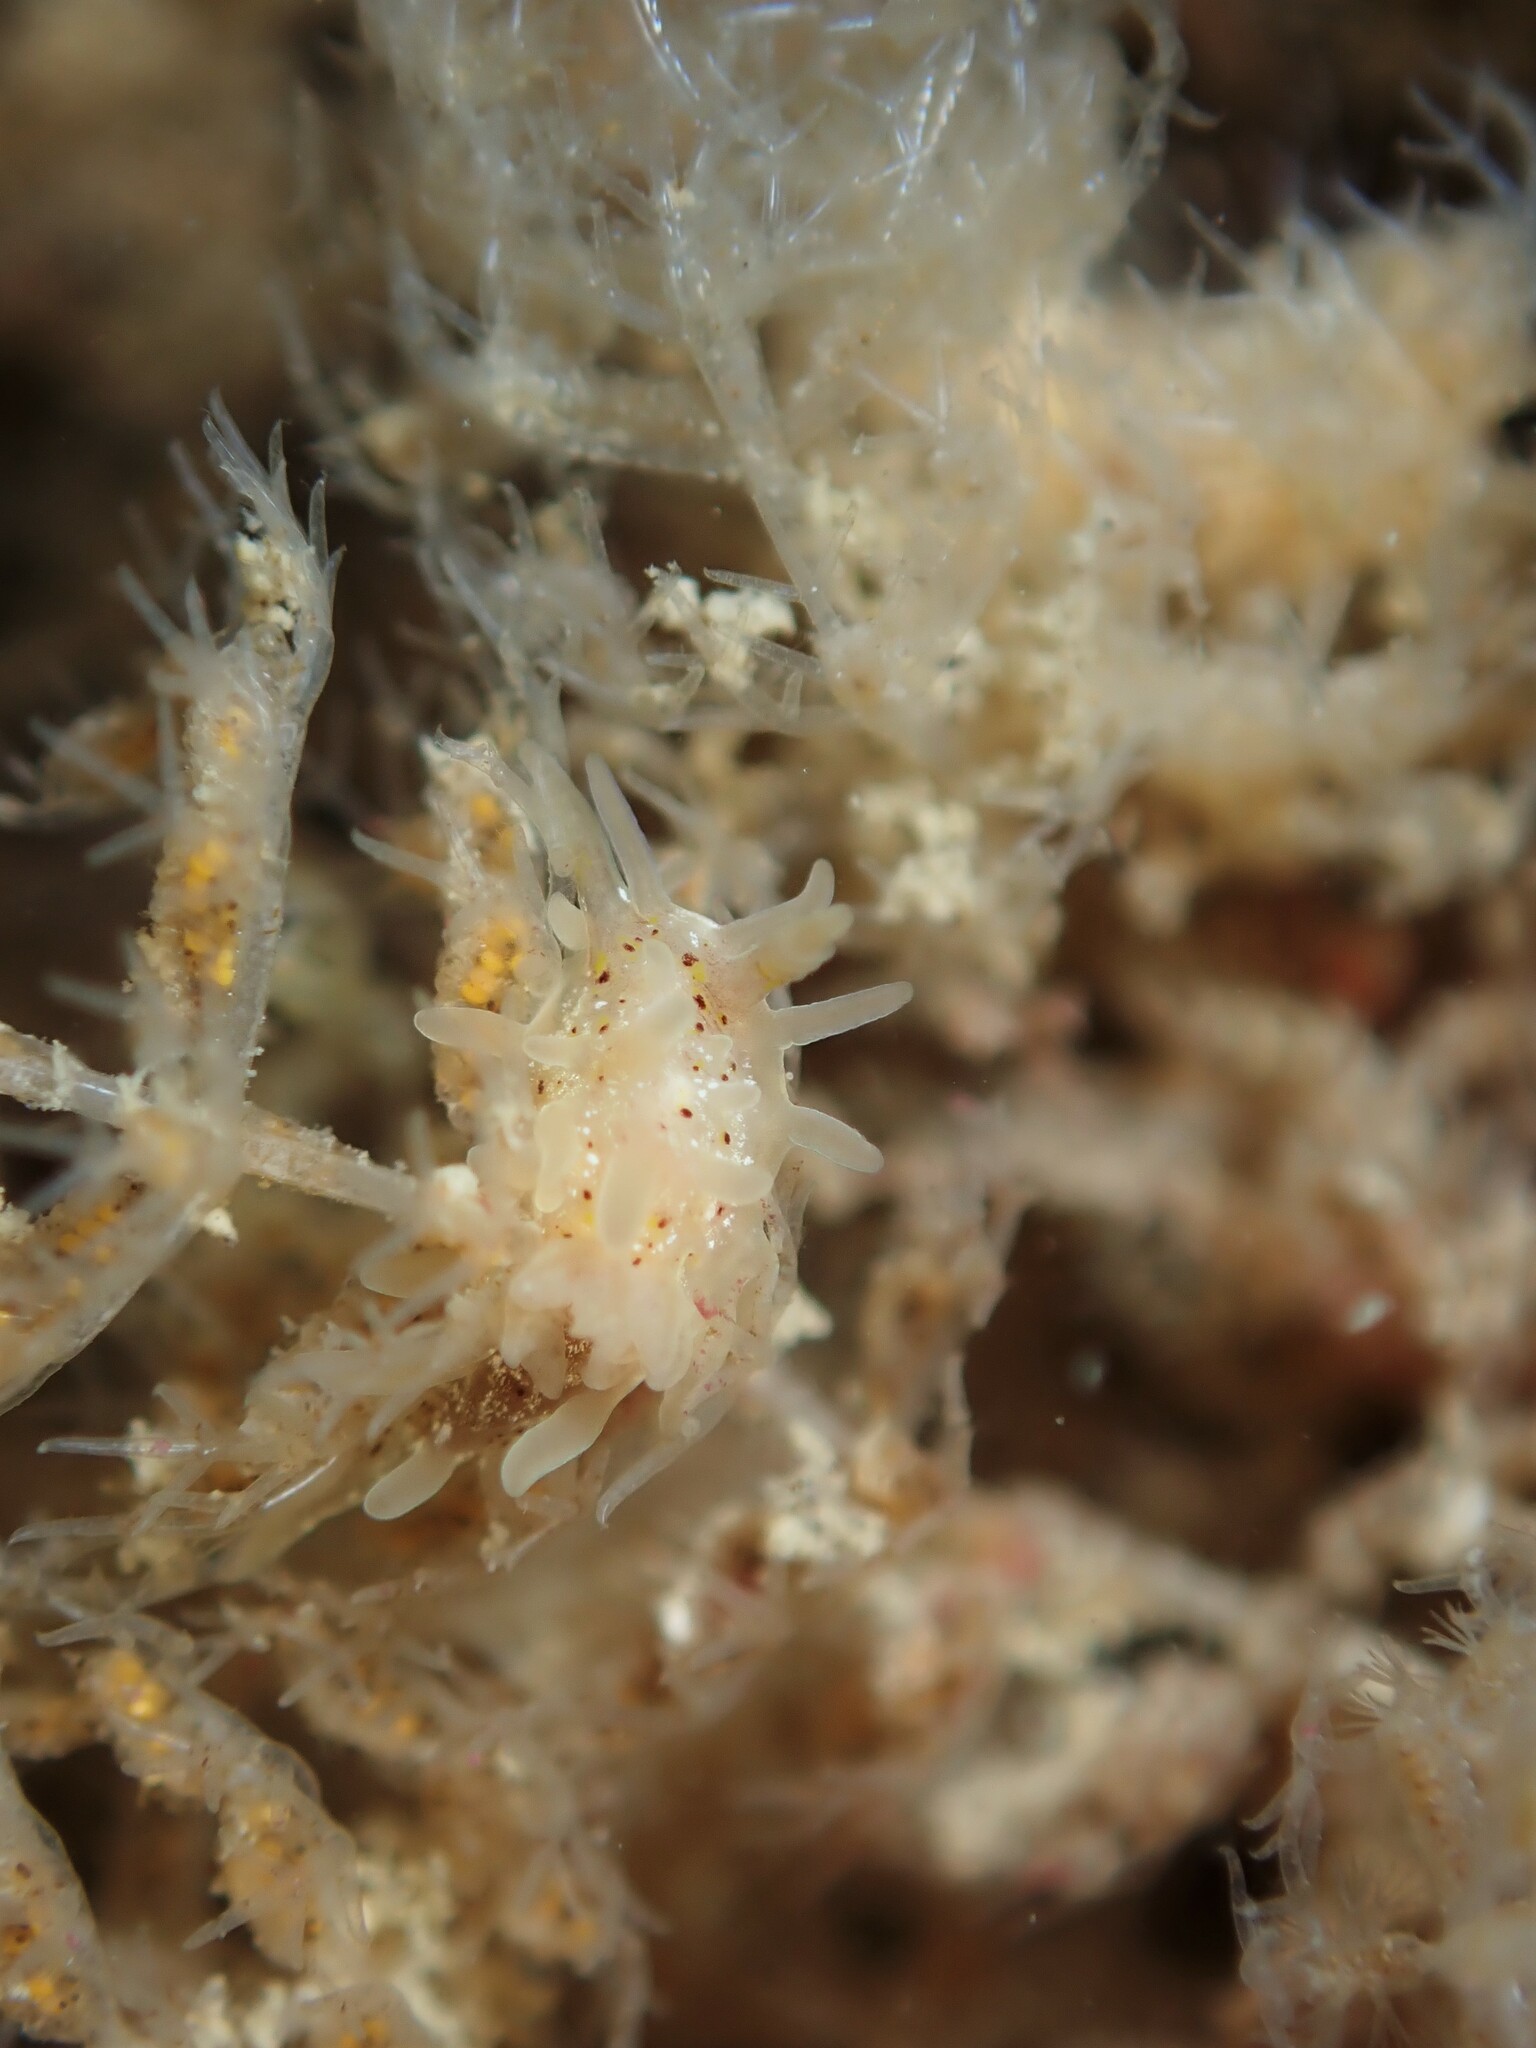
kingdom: Animalia
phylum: Mollusca
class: Gastropoda
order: Nudibranchia
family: Goniodorididae
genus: Okenia
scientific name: Okenia
